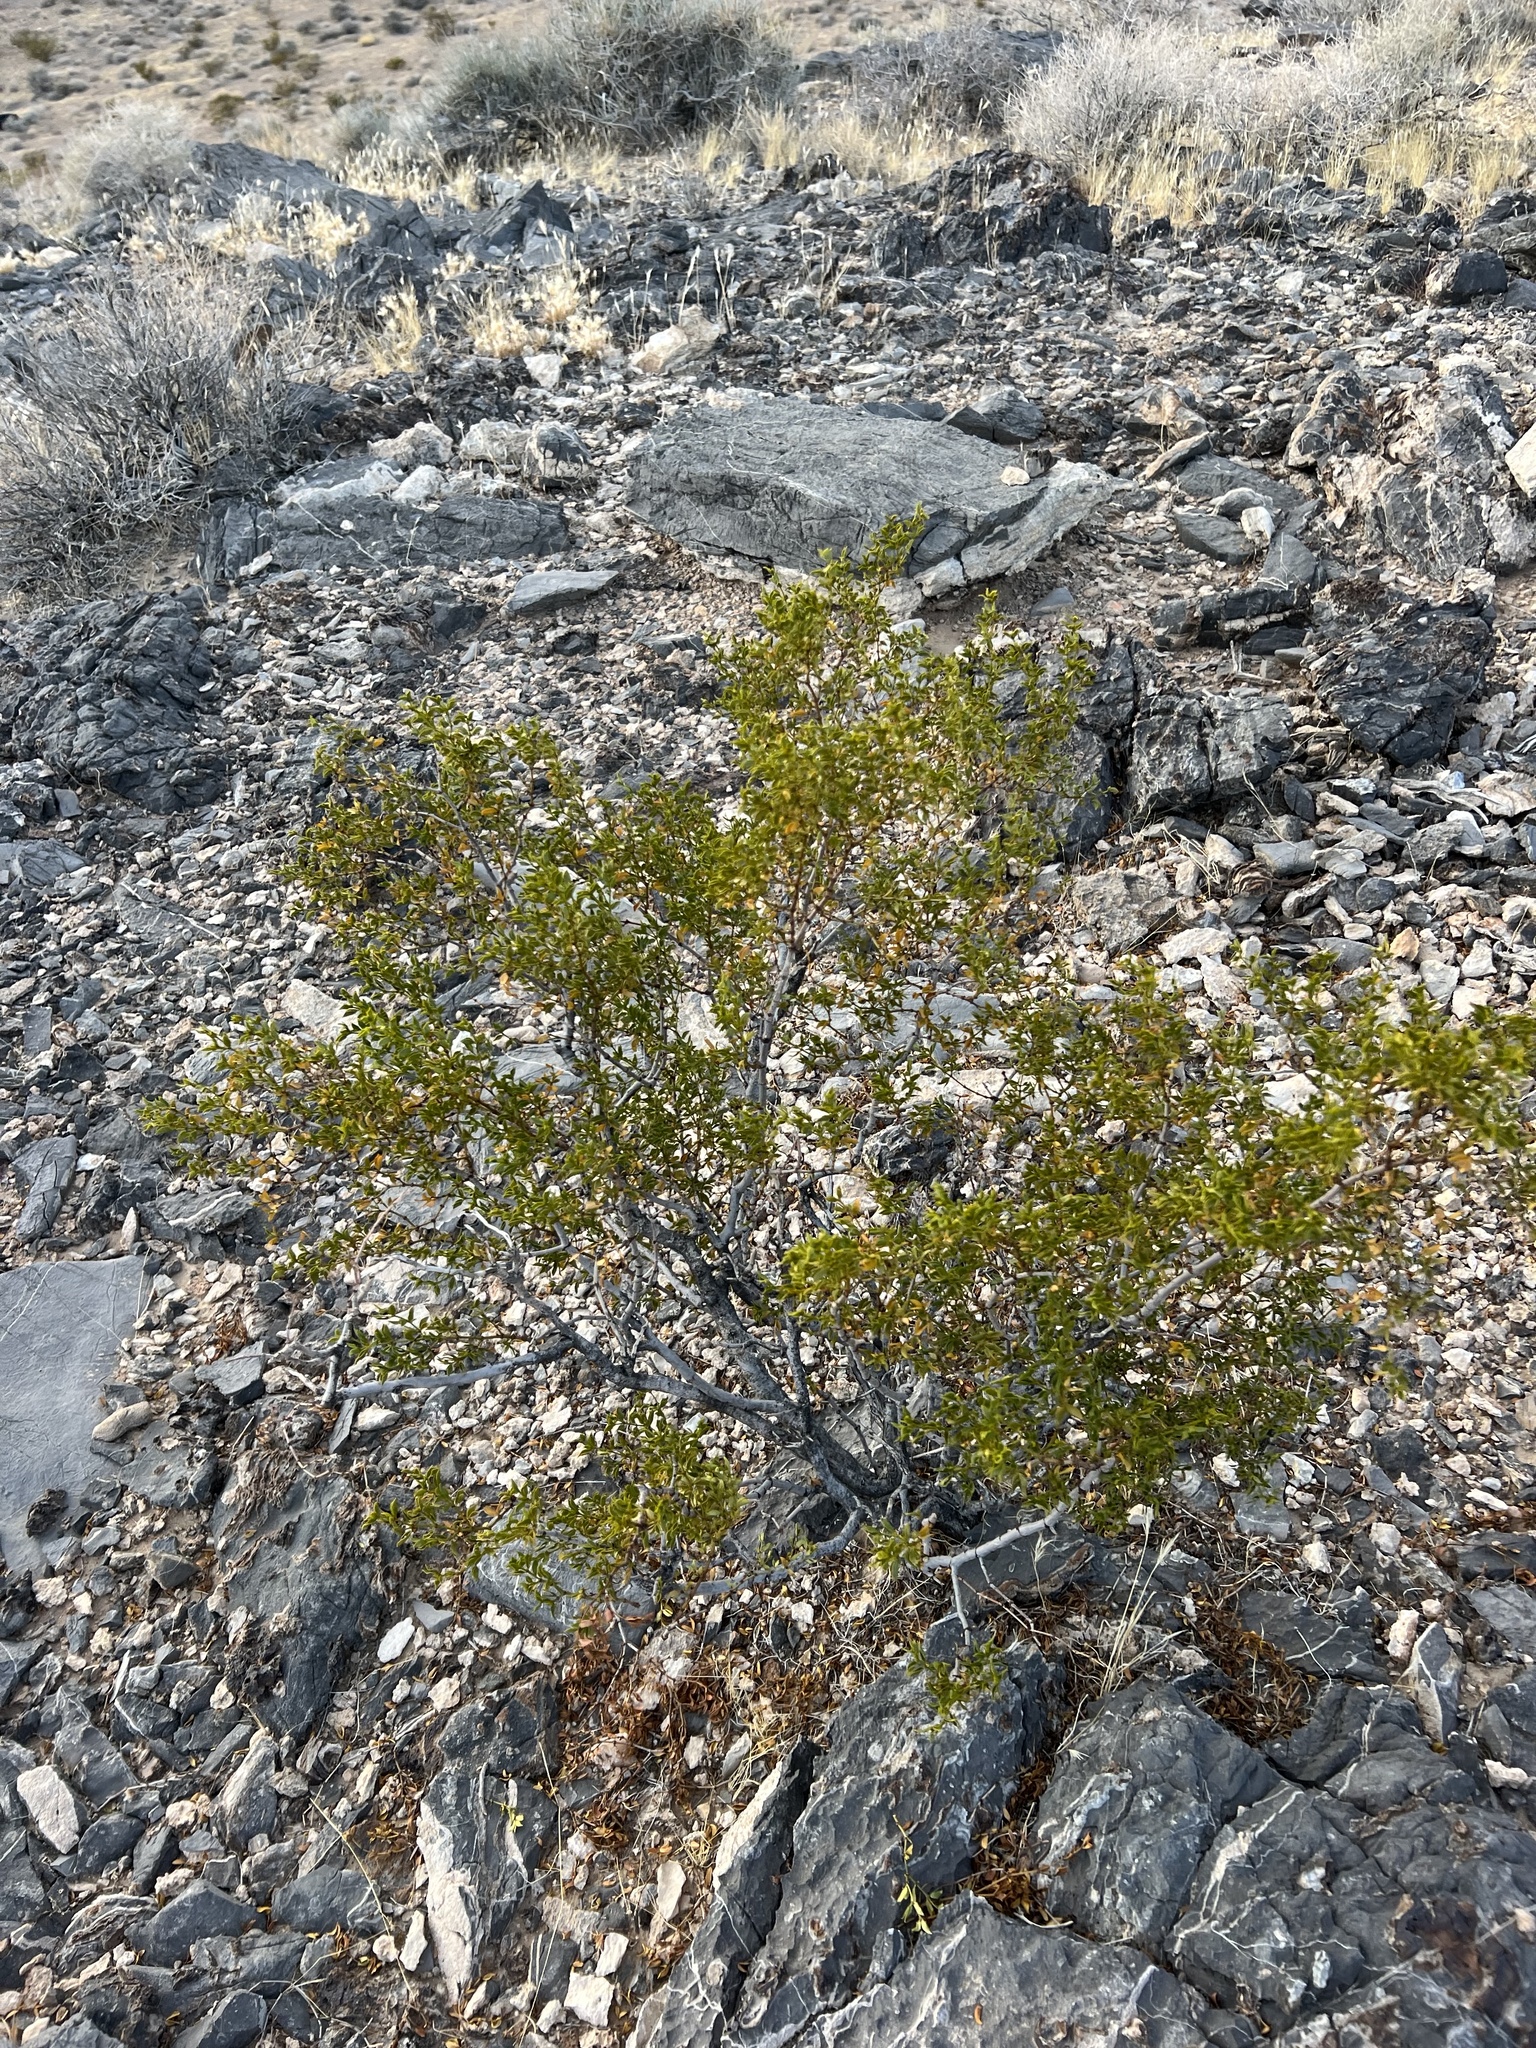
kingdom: Plantae
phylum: Tracheophyta
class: Magnoliopsida
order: Zygophyllales
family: Zygophyllaceae
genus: Larrea
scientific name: Larrea tridentata
